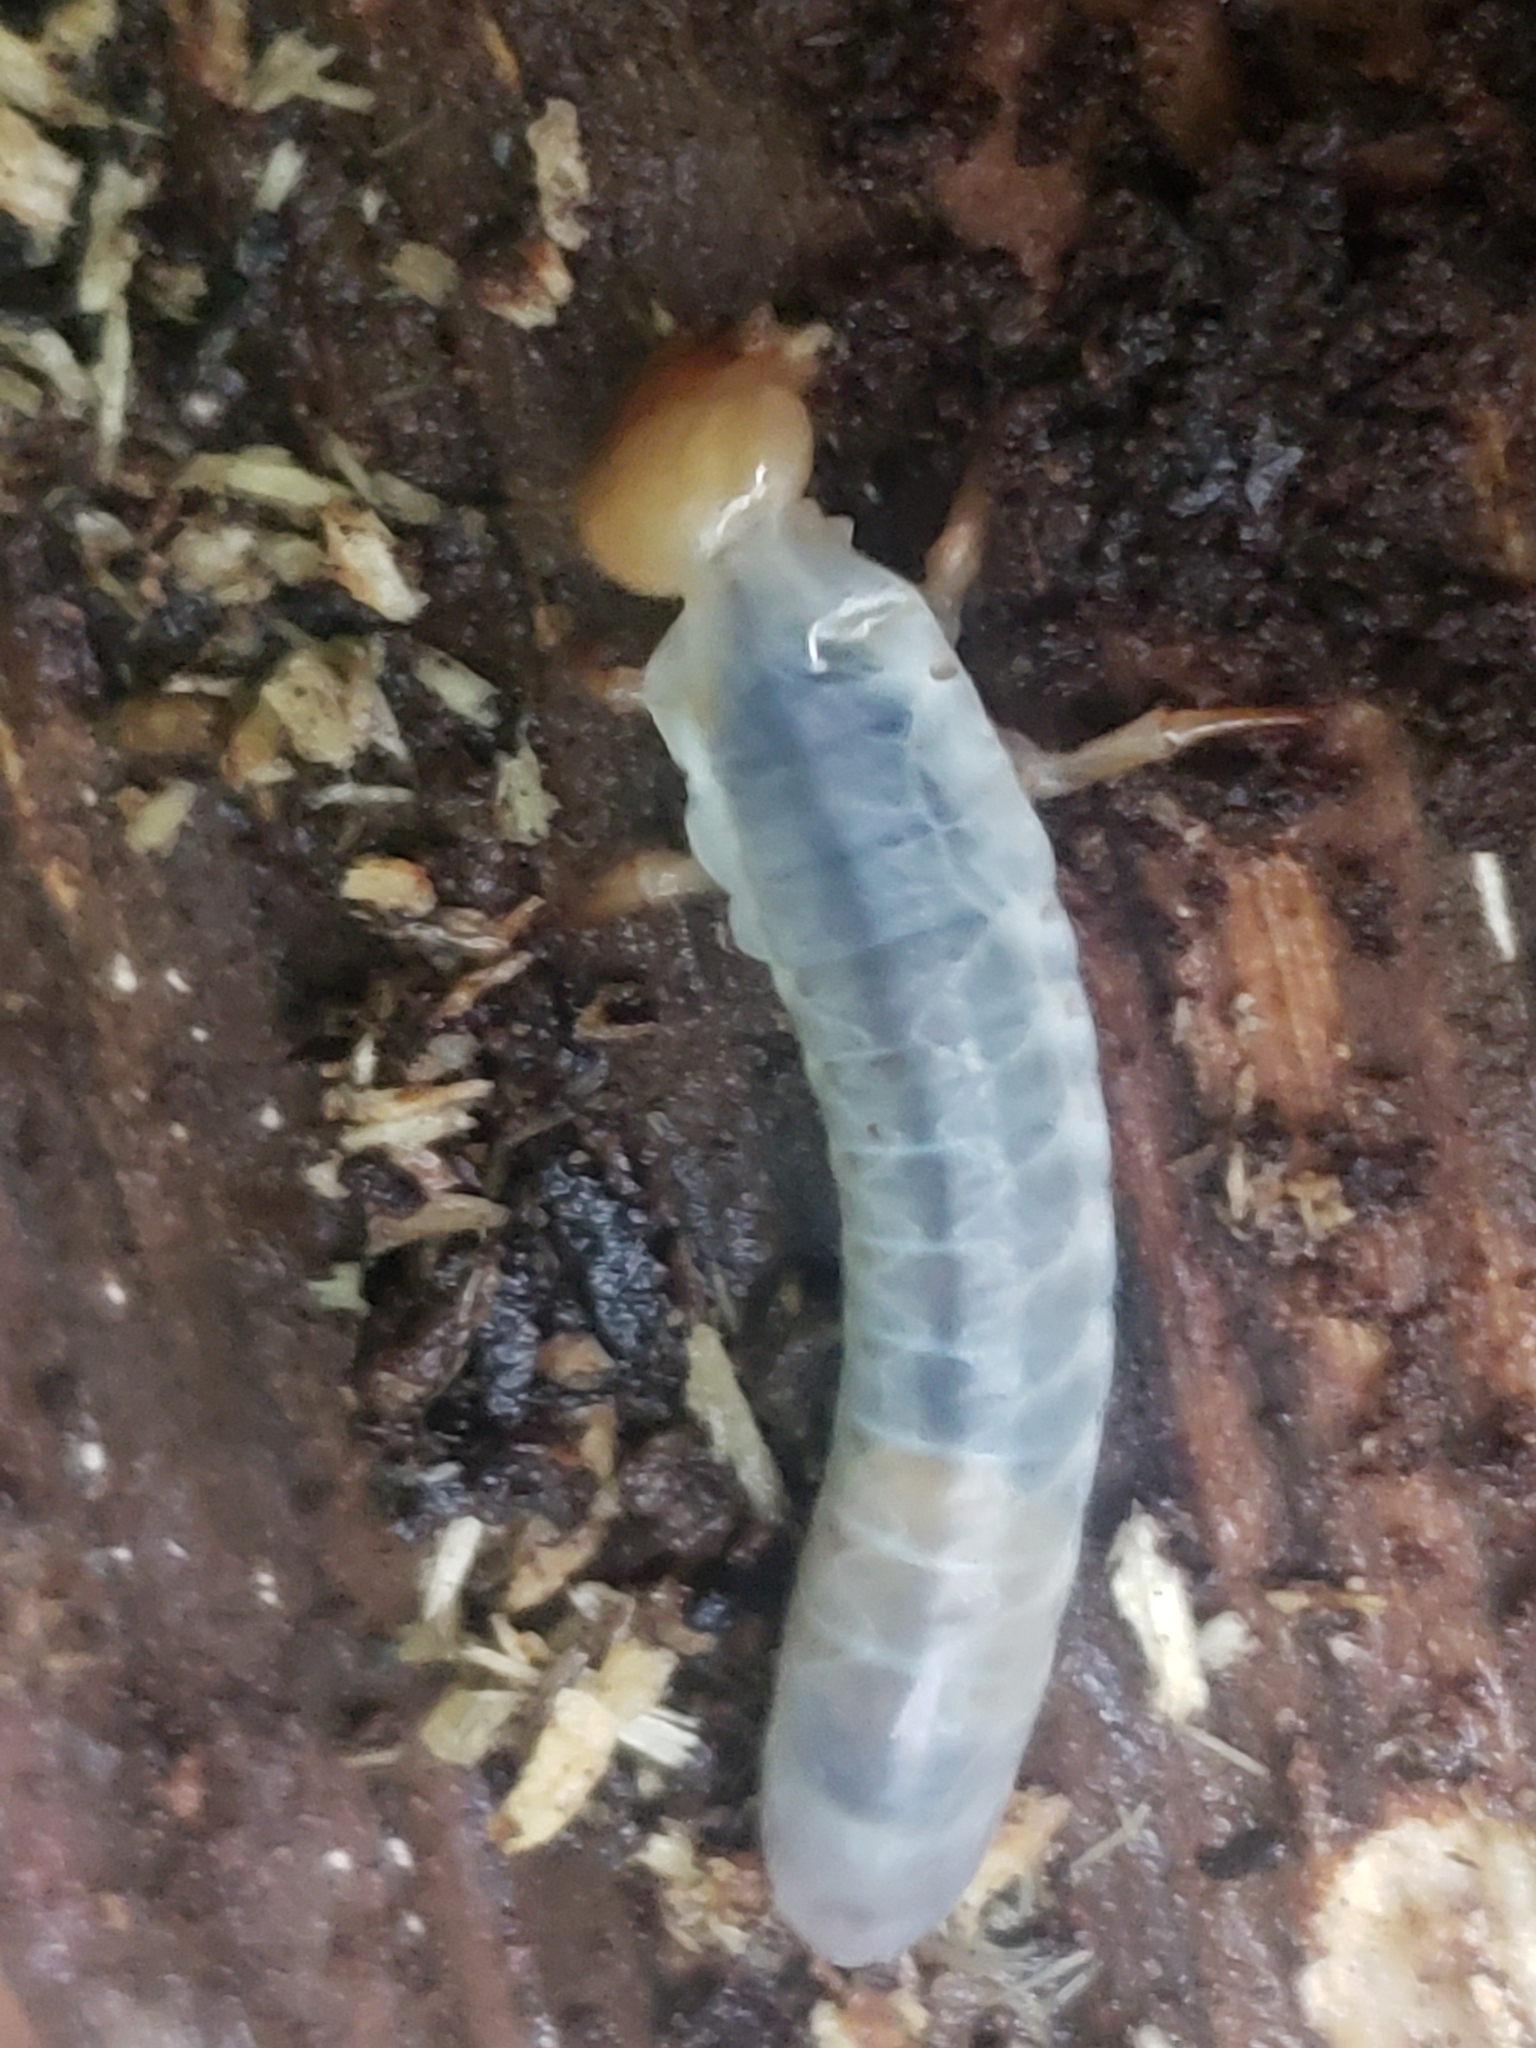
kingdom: Animalia
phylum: Arthropoda
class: Insecta
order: Coleoptera
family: Passalidae
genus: Odontotaenius
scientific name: Odontotaenius disjunctus
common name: Patent leather beetle
